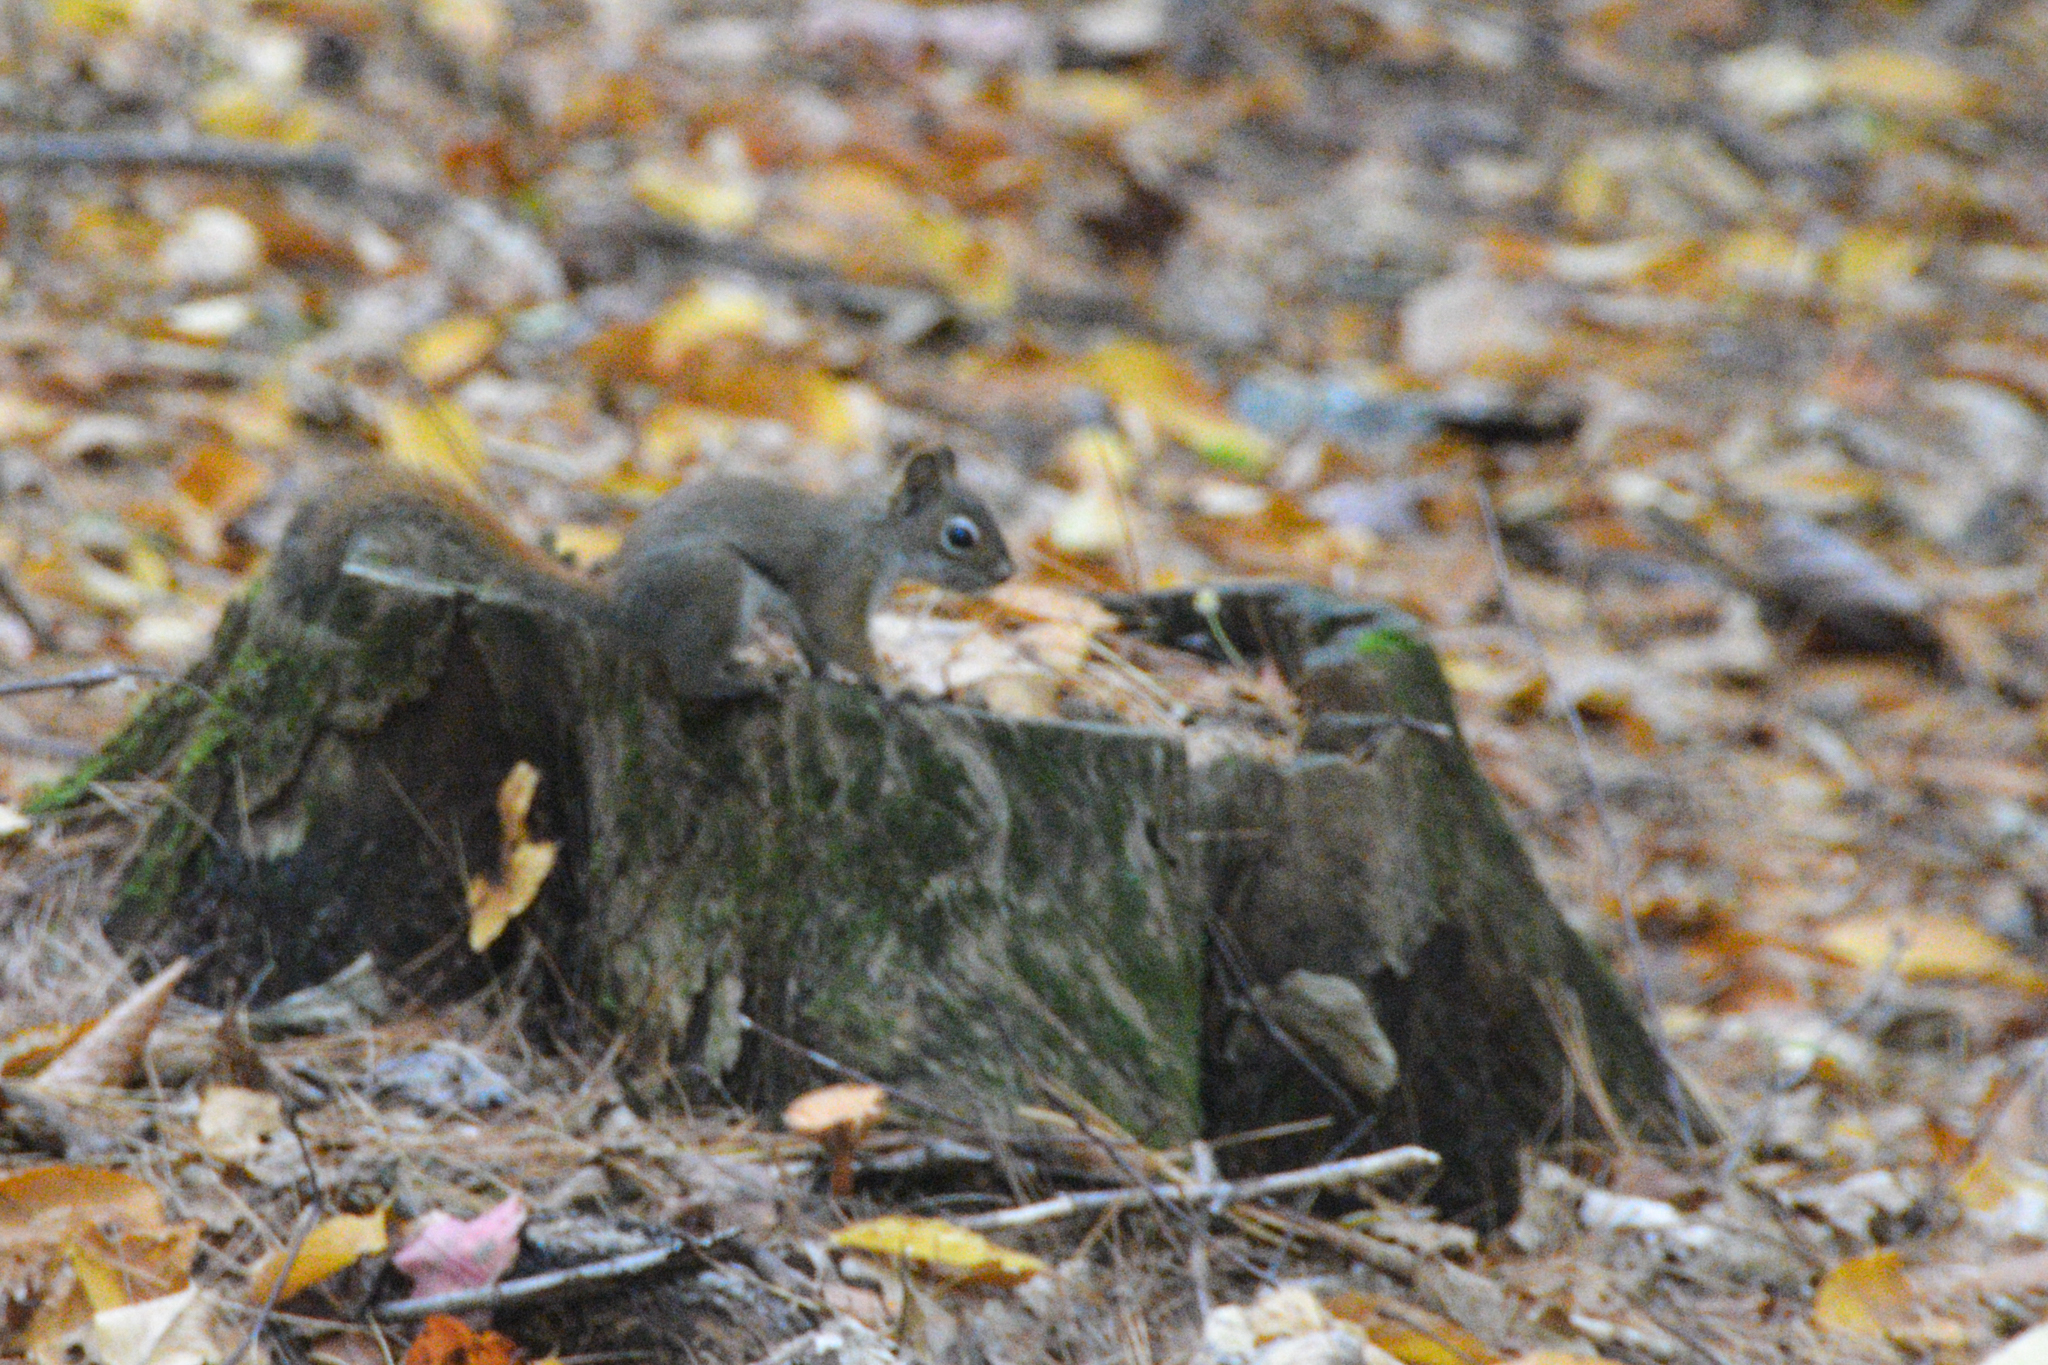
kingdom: Animalia
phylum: Chordata
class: Mammalia
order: Rodentia
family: Sciuridae
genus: Tamiasciurus
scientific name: Tamiasciurus hudsonicus
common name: Red squirrel
